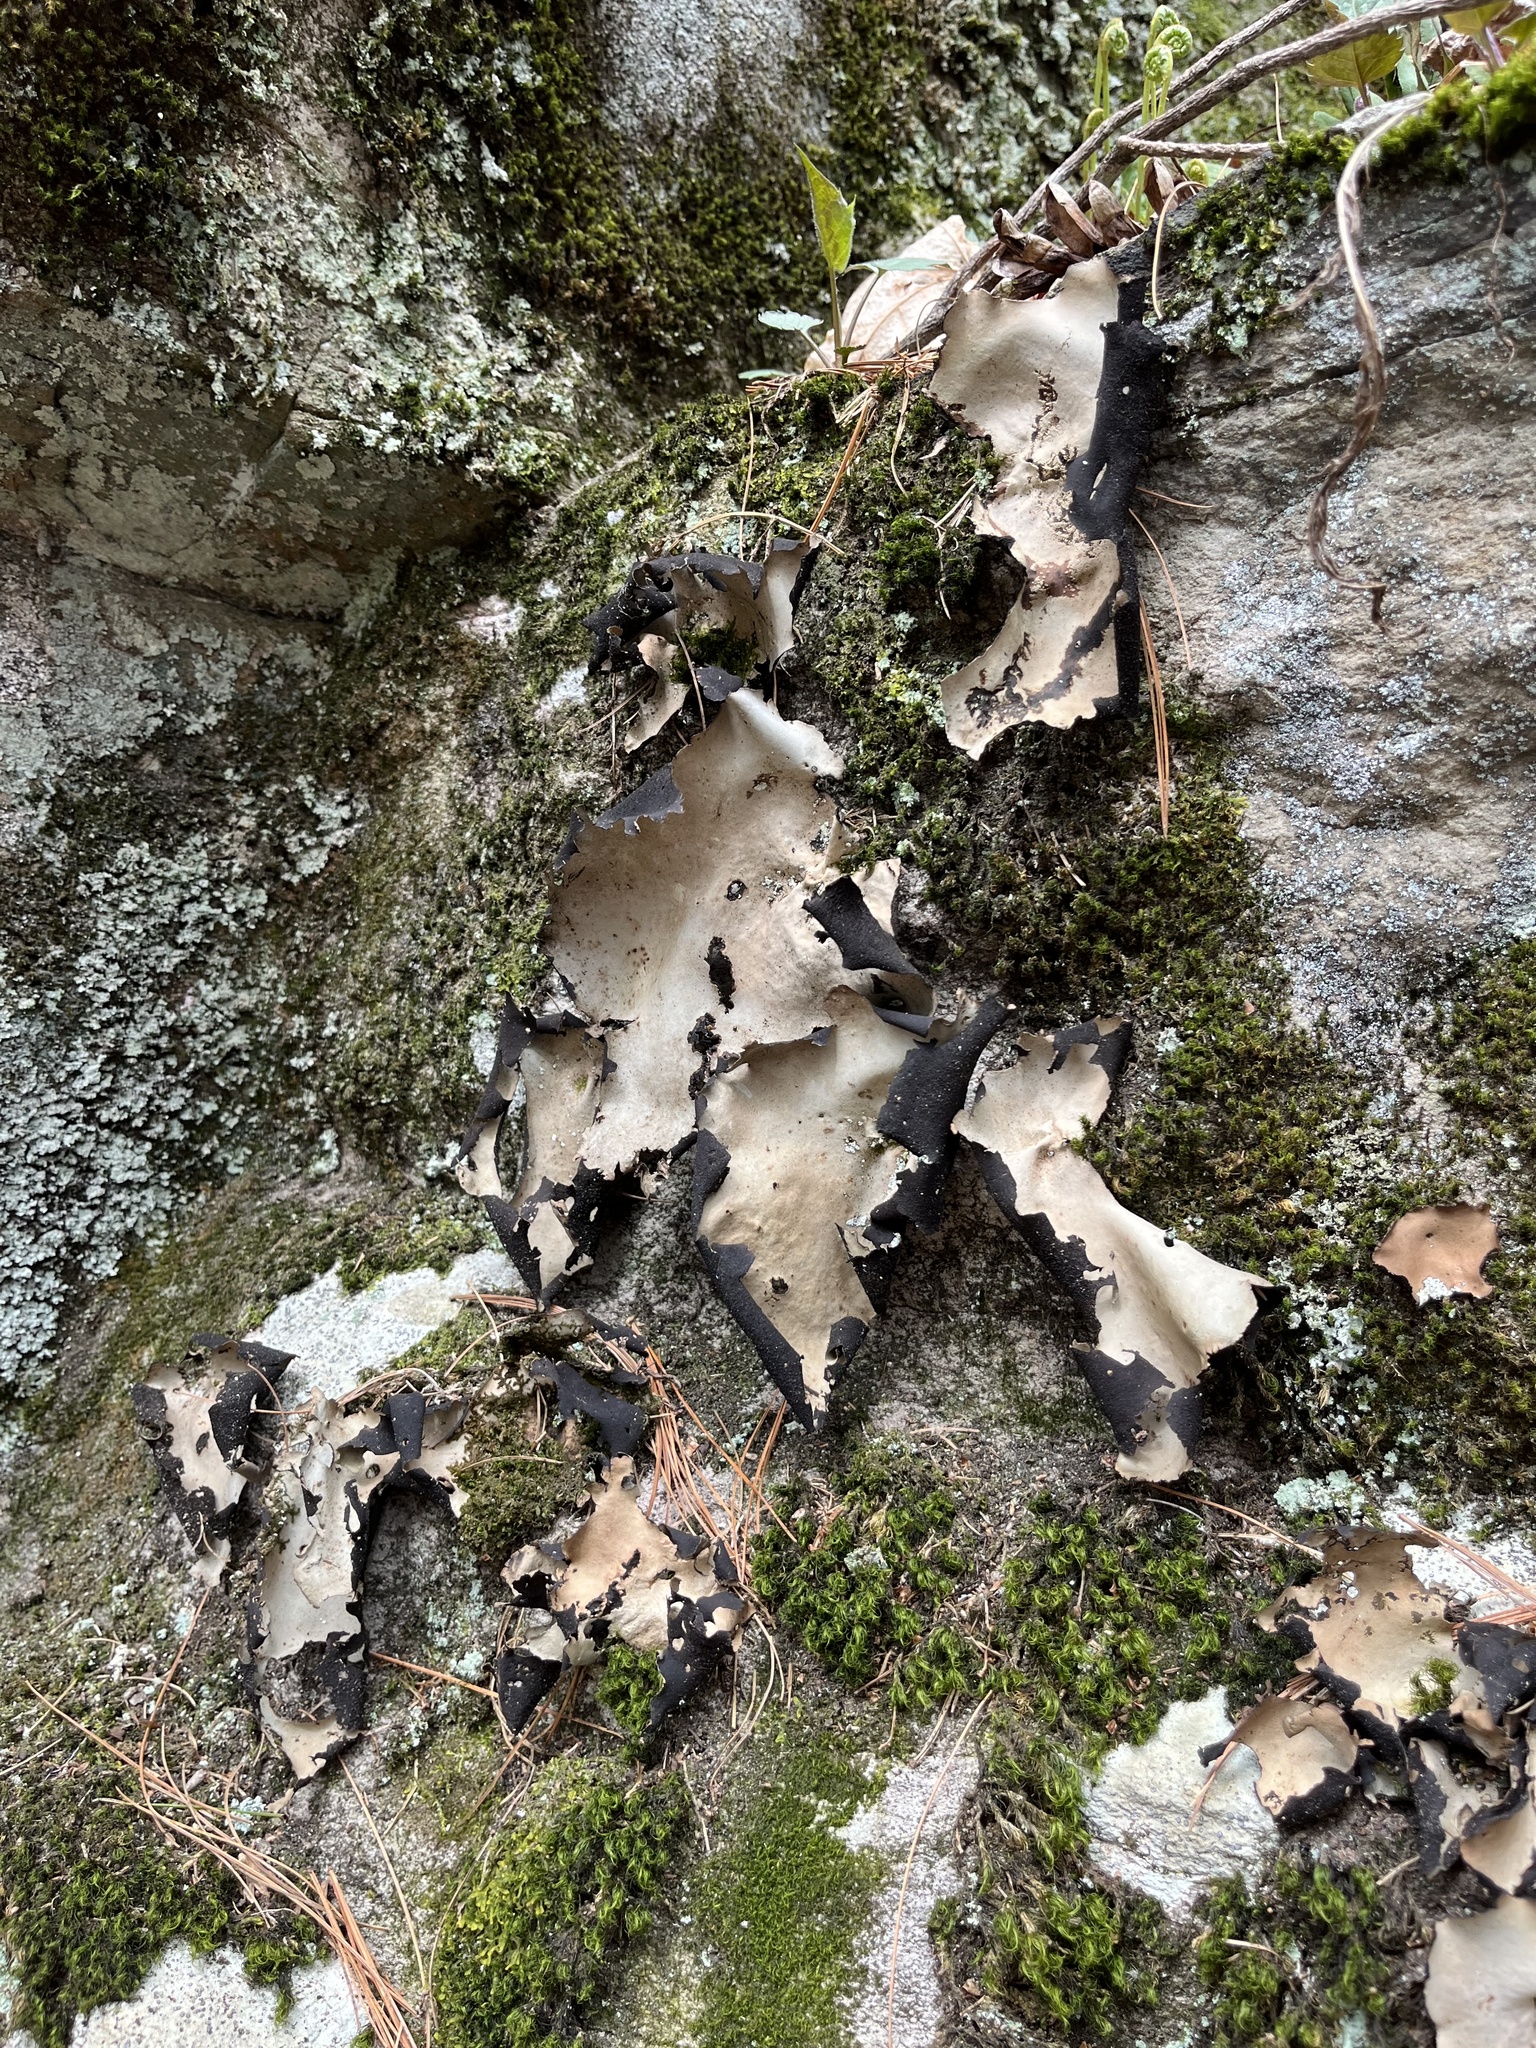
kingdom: Fungi
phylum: Ascomycota
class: Lecanoromycetes
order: Umbilicariales
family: Umbilicariaceae
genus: Umbilicaria
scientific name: Umbilicaria mammulata
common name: Smooth rock tripe
